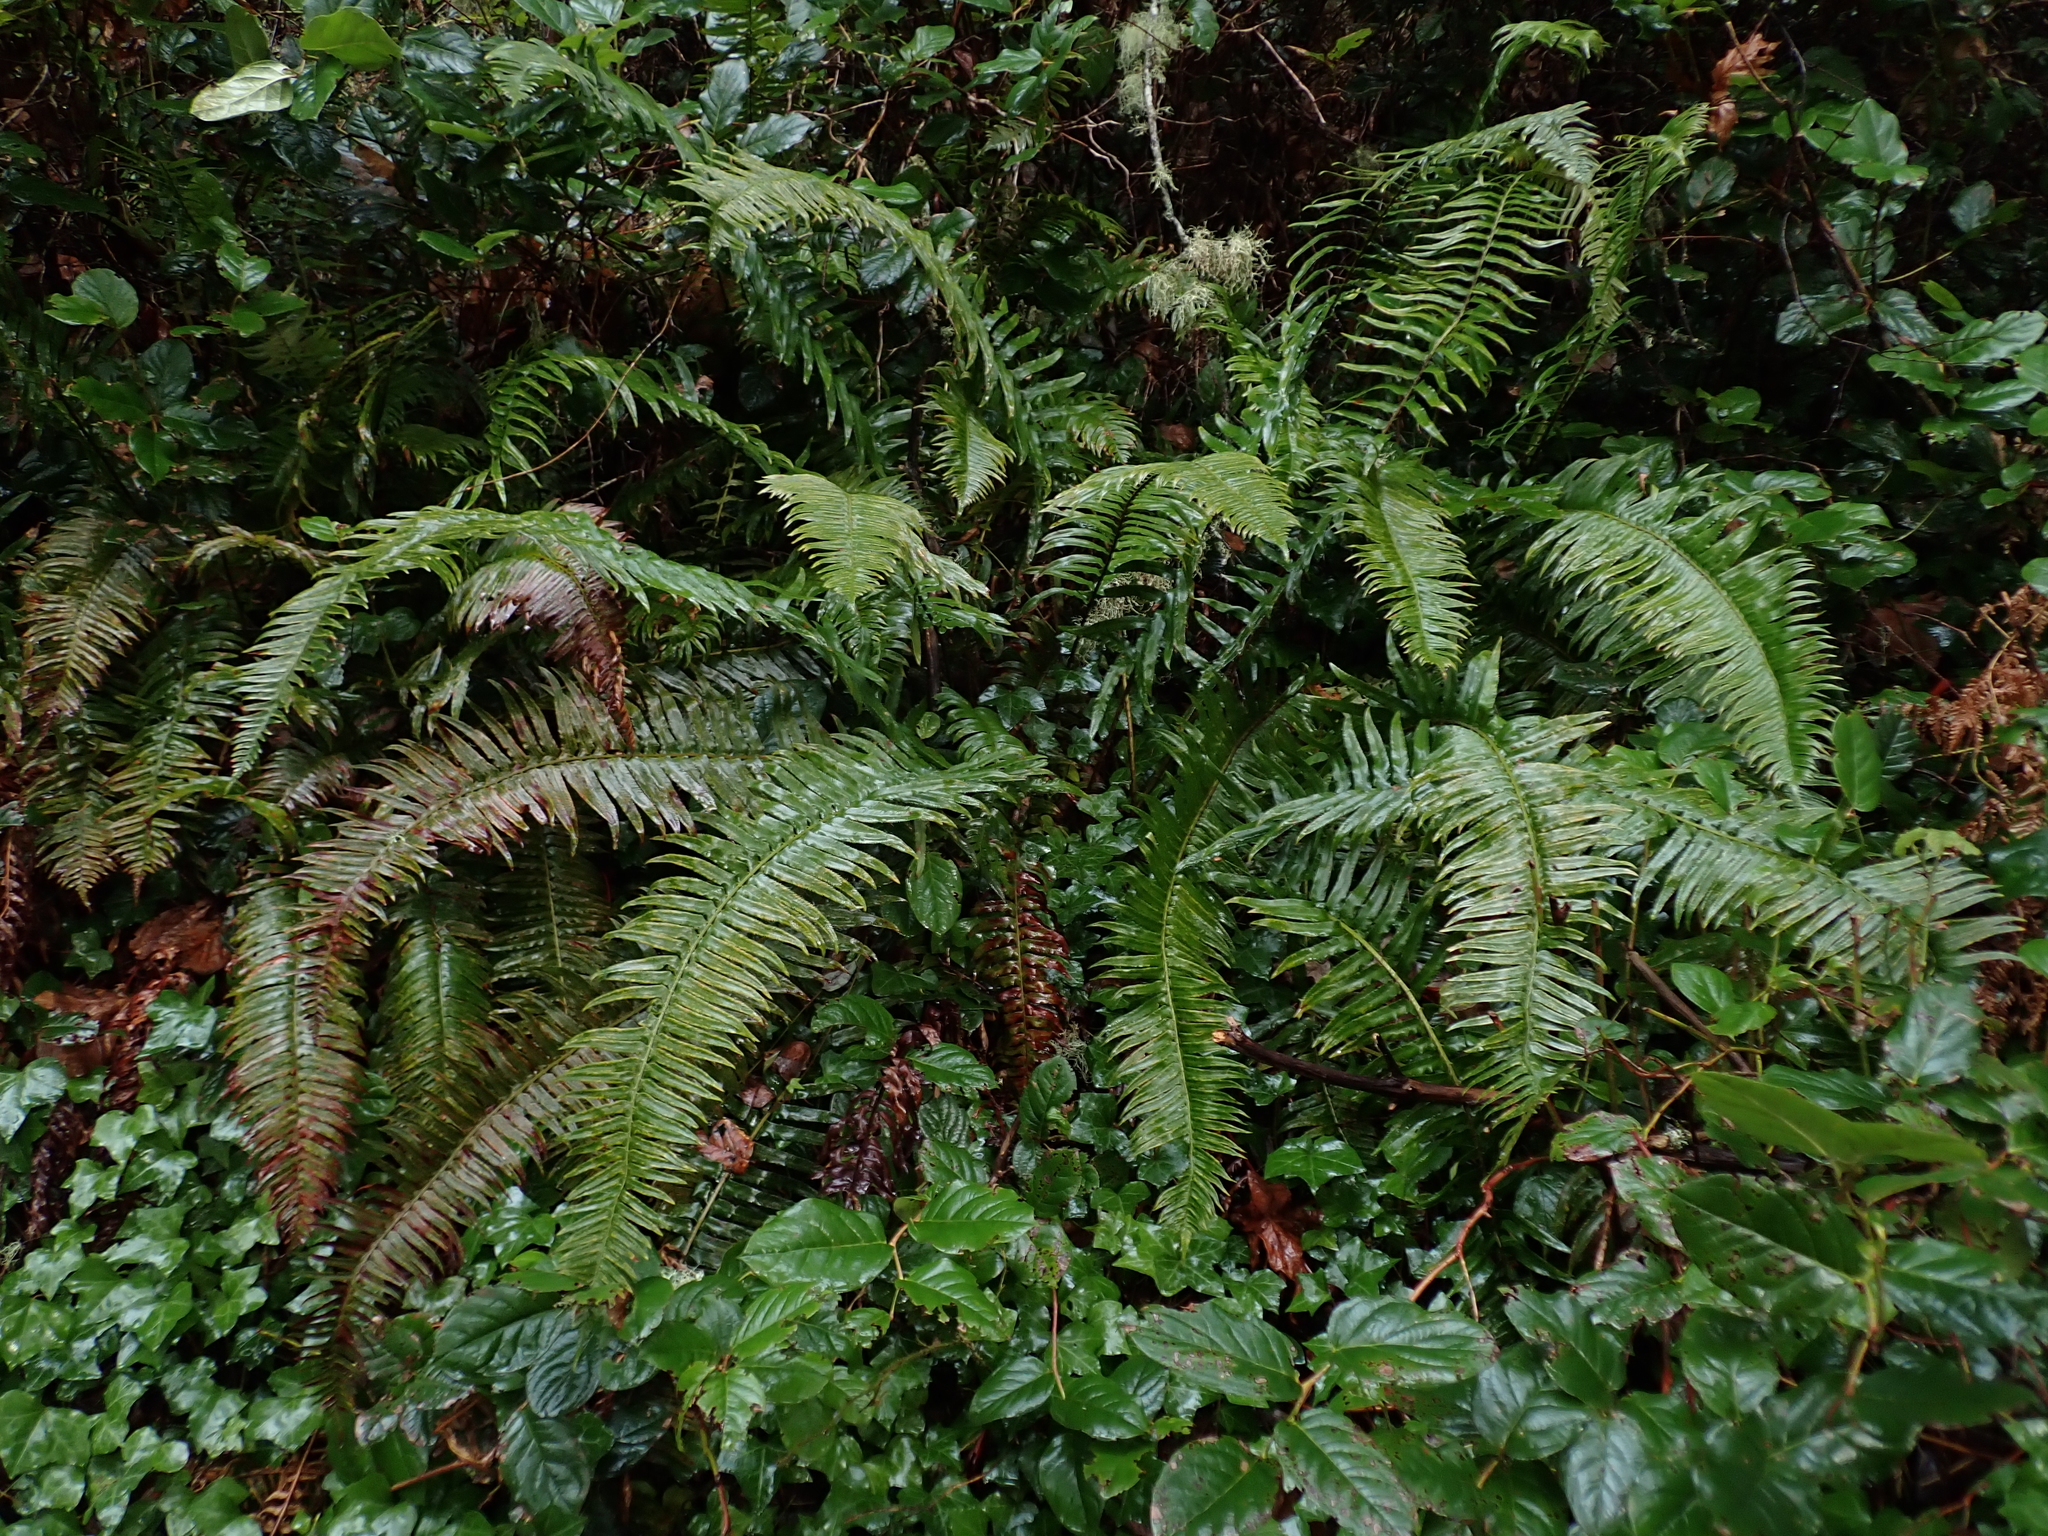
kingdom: Plantae
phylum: Tracheophyta
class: Polypodiopsida
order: Polypodiales
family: Dryopteridaceae
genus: Polystichum
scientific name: Polystichum munitum
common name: Western sword-fern
